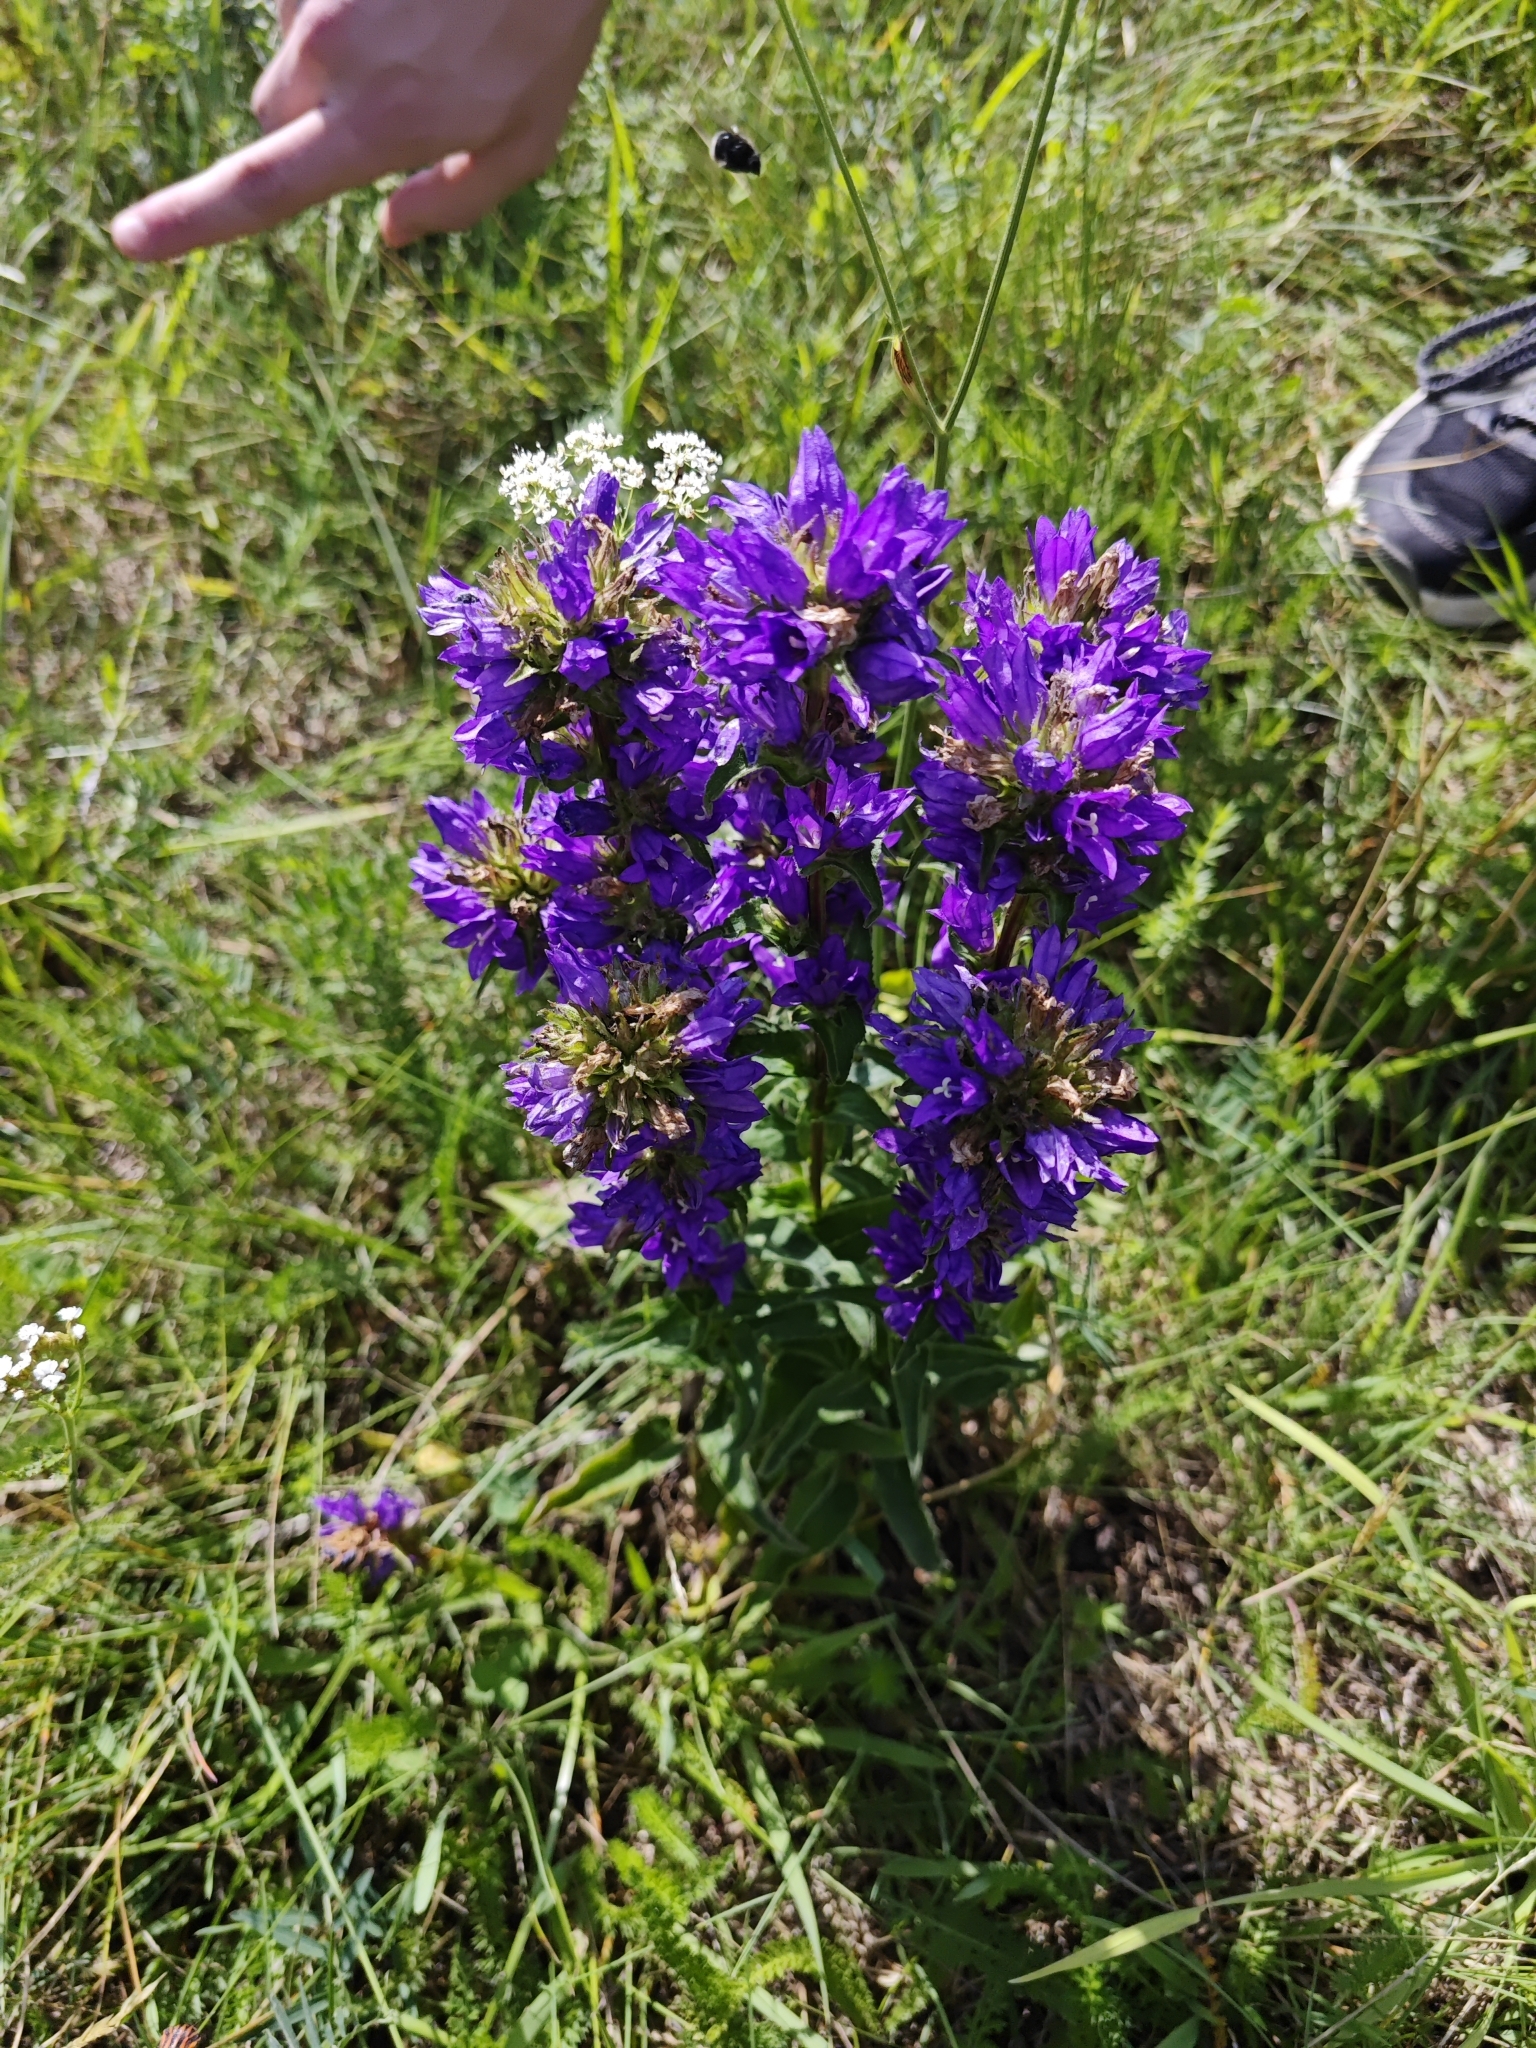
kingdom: Plantae
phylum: Tracheophyta
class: Magnoliopsida
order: Asterales
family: Campanulaceae
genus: Campanula
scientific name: Campanula glomerata
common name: Clustered bellflower
